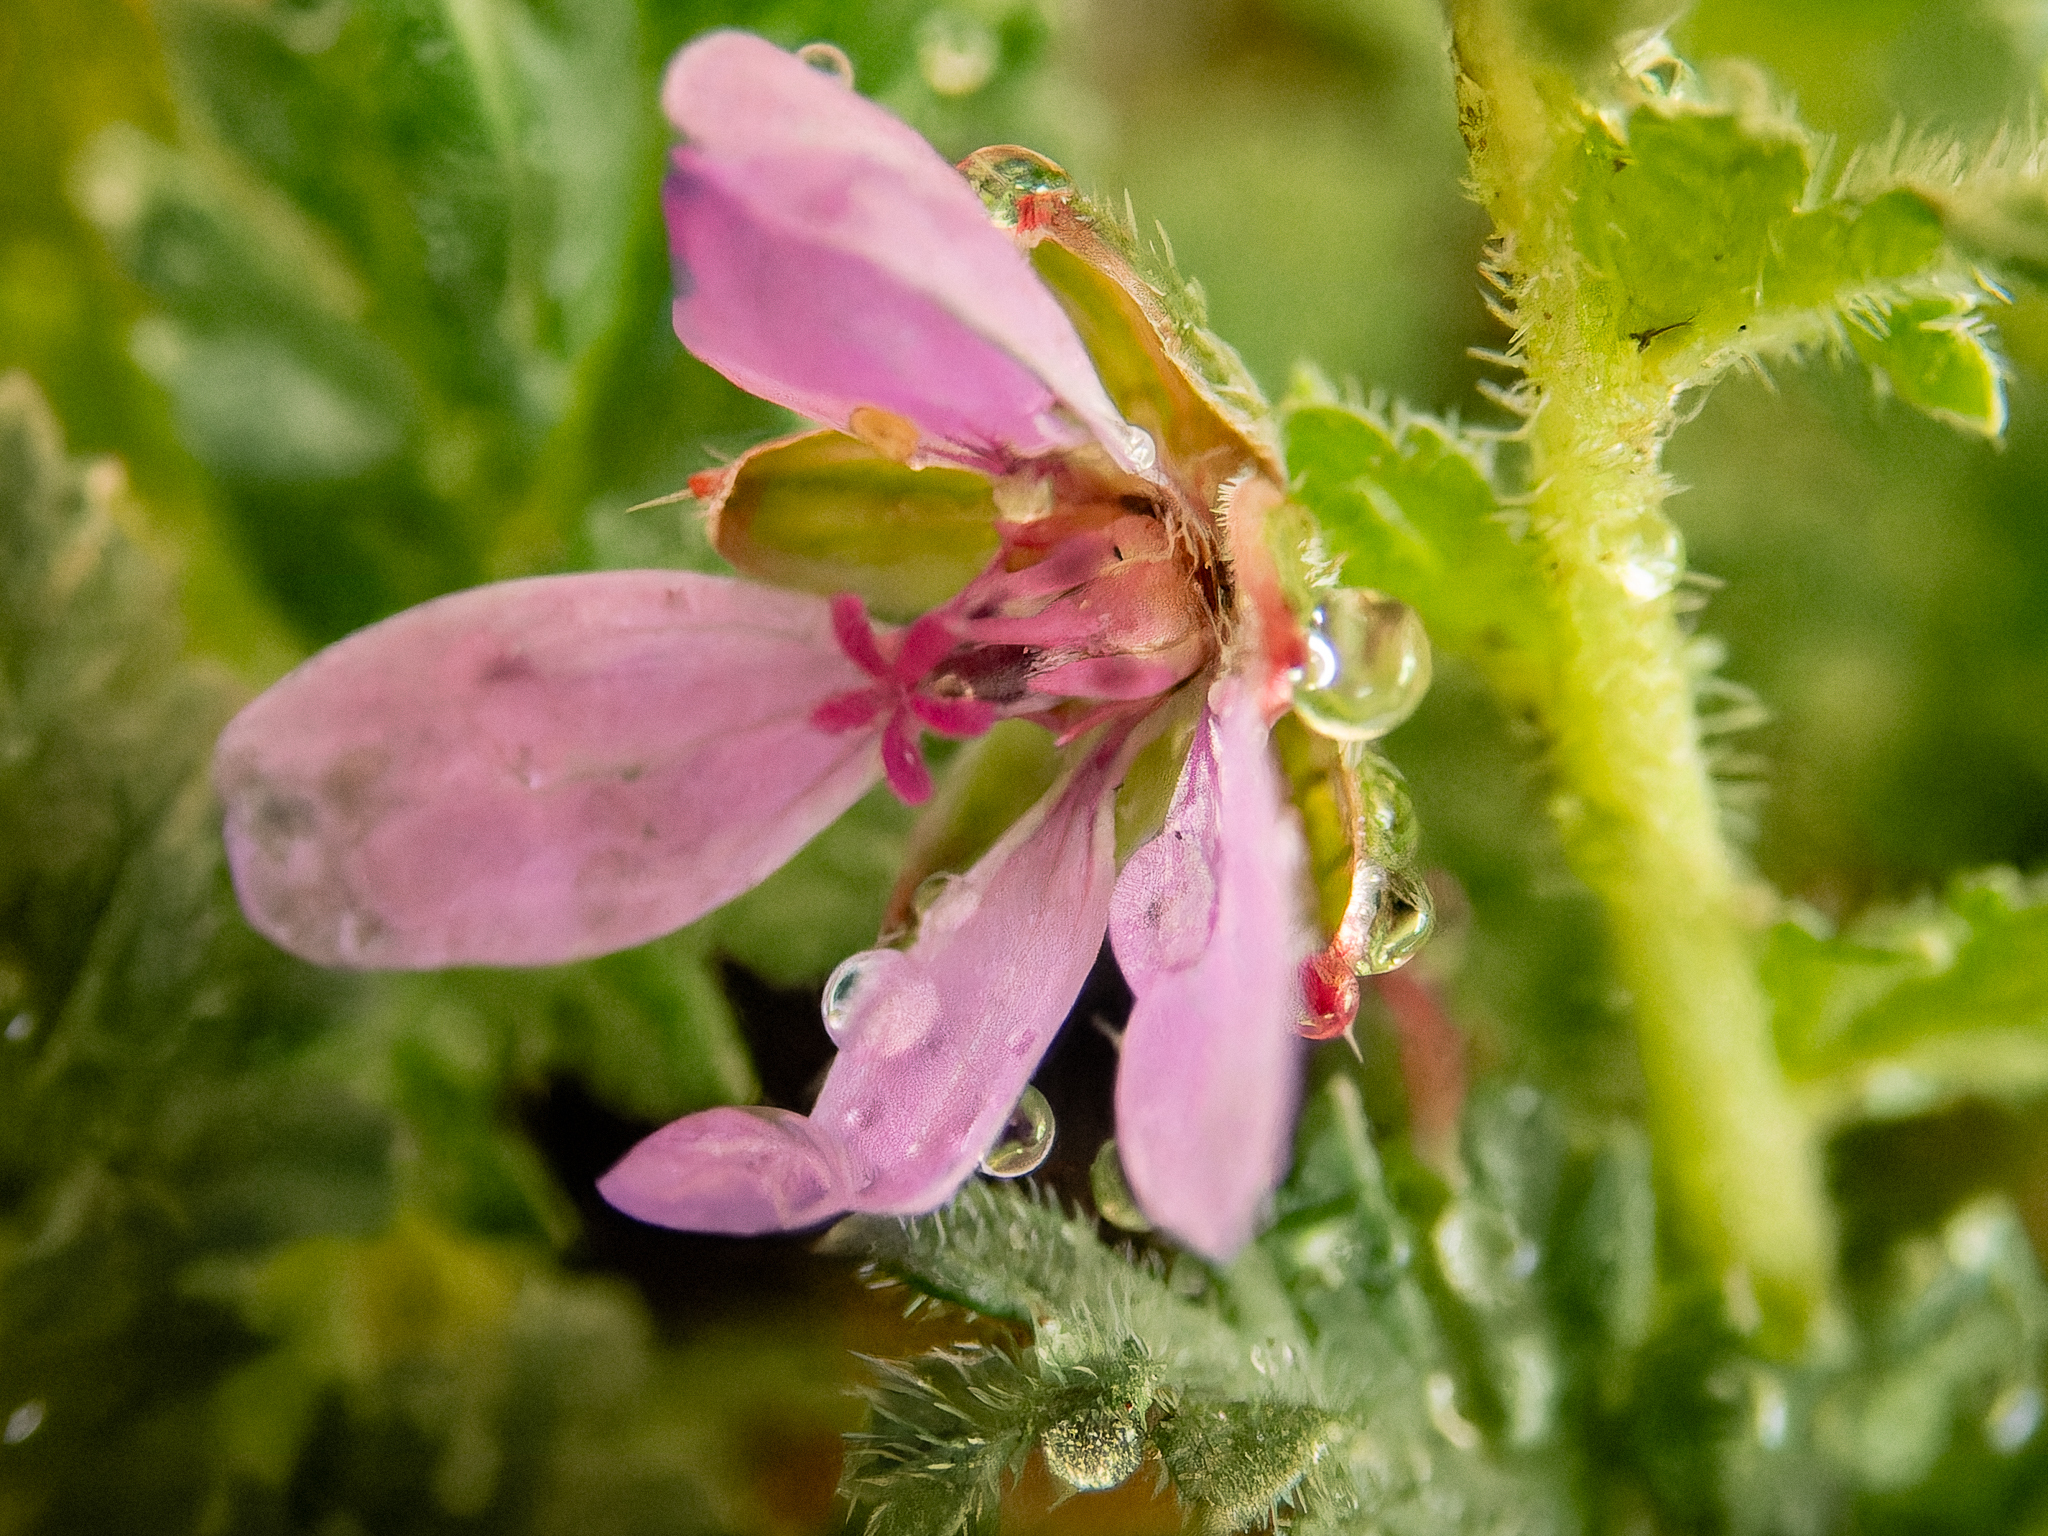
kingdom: Plantae
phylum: Tracheophyta
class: Magnoliopsida
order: Geraniales
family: Geraniaceae
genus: Erodium
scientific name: Erodium cicutarium
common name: Common stork's-bill
